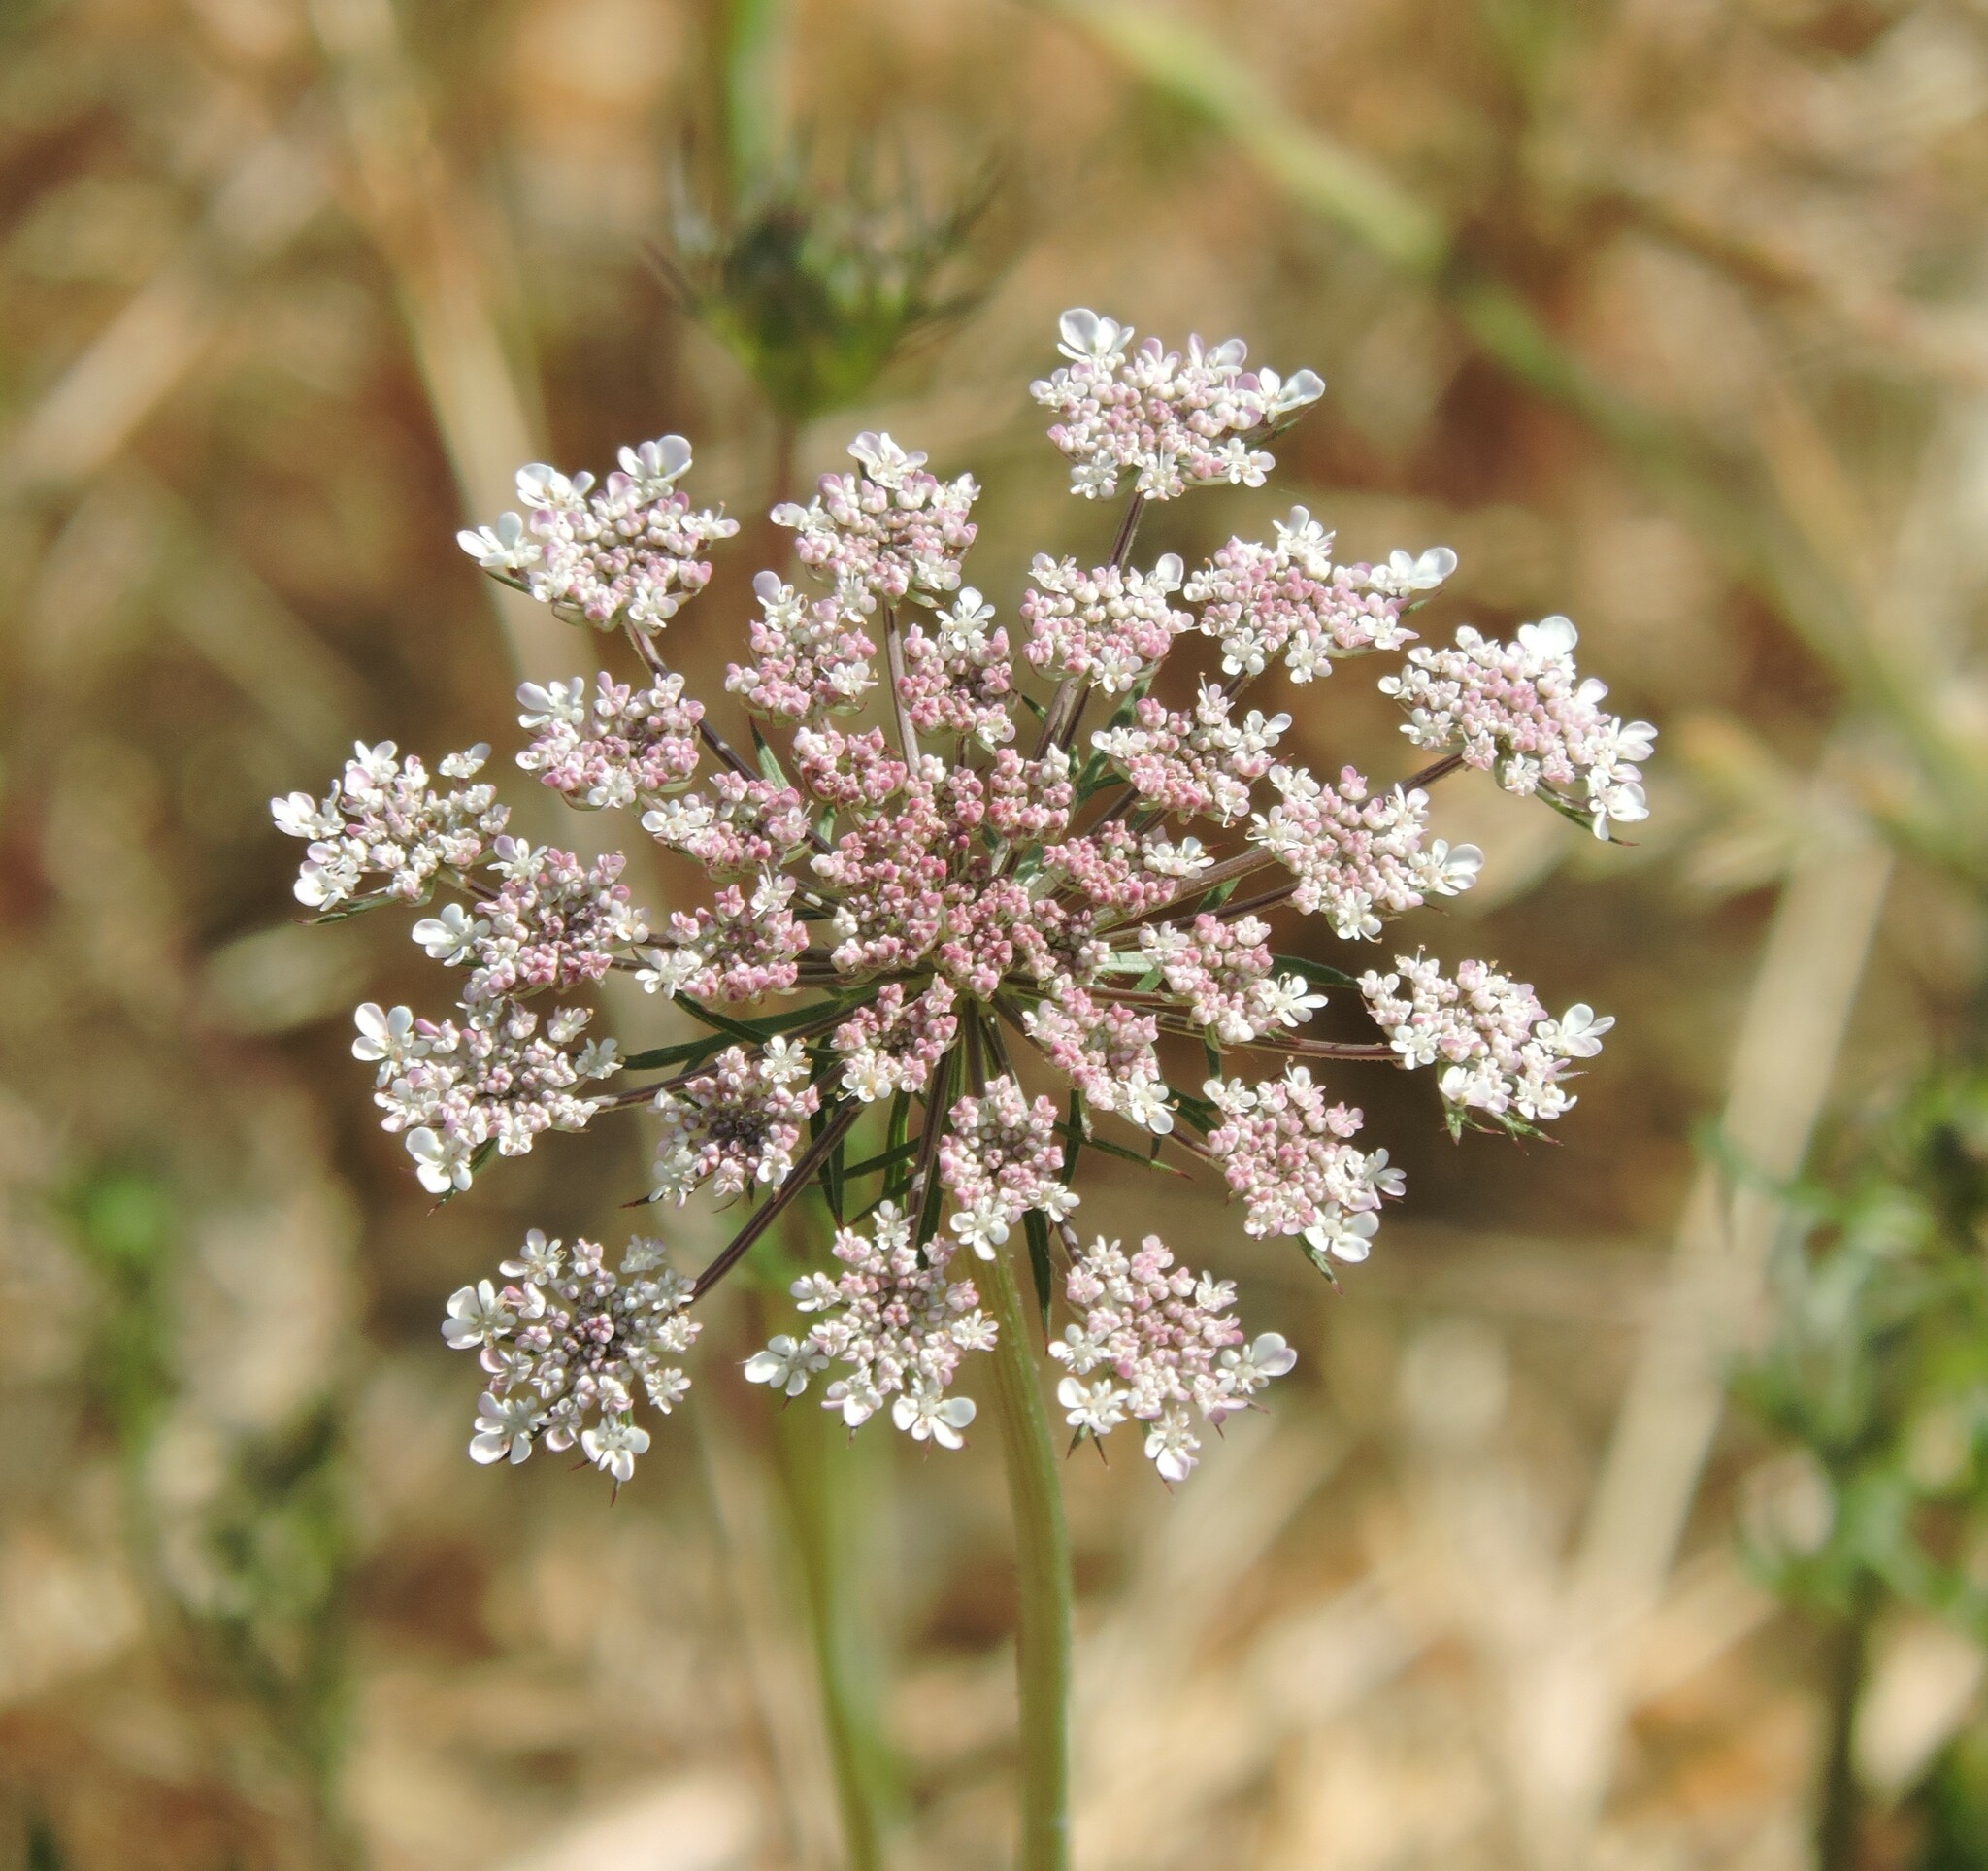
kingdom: Plantae
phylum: Tracheophyta
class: Magnoliopsida
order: Apiales
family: Apiaceae
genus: Daucus
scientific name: Daucus carota
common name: Wild carrot
